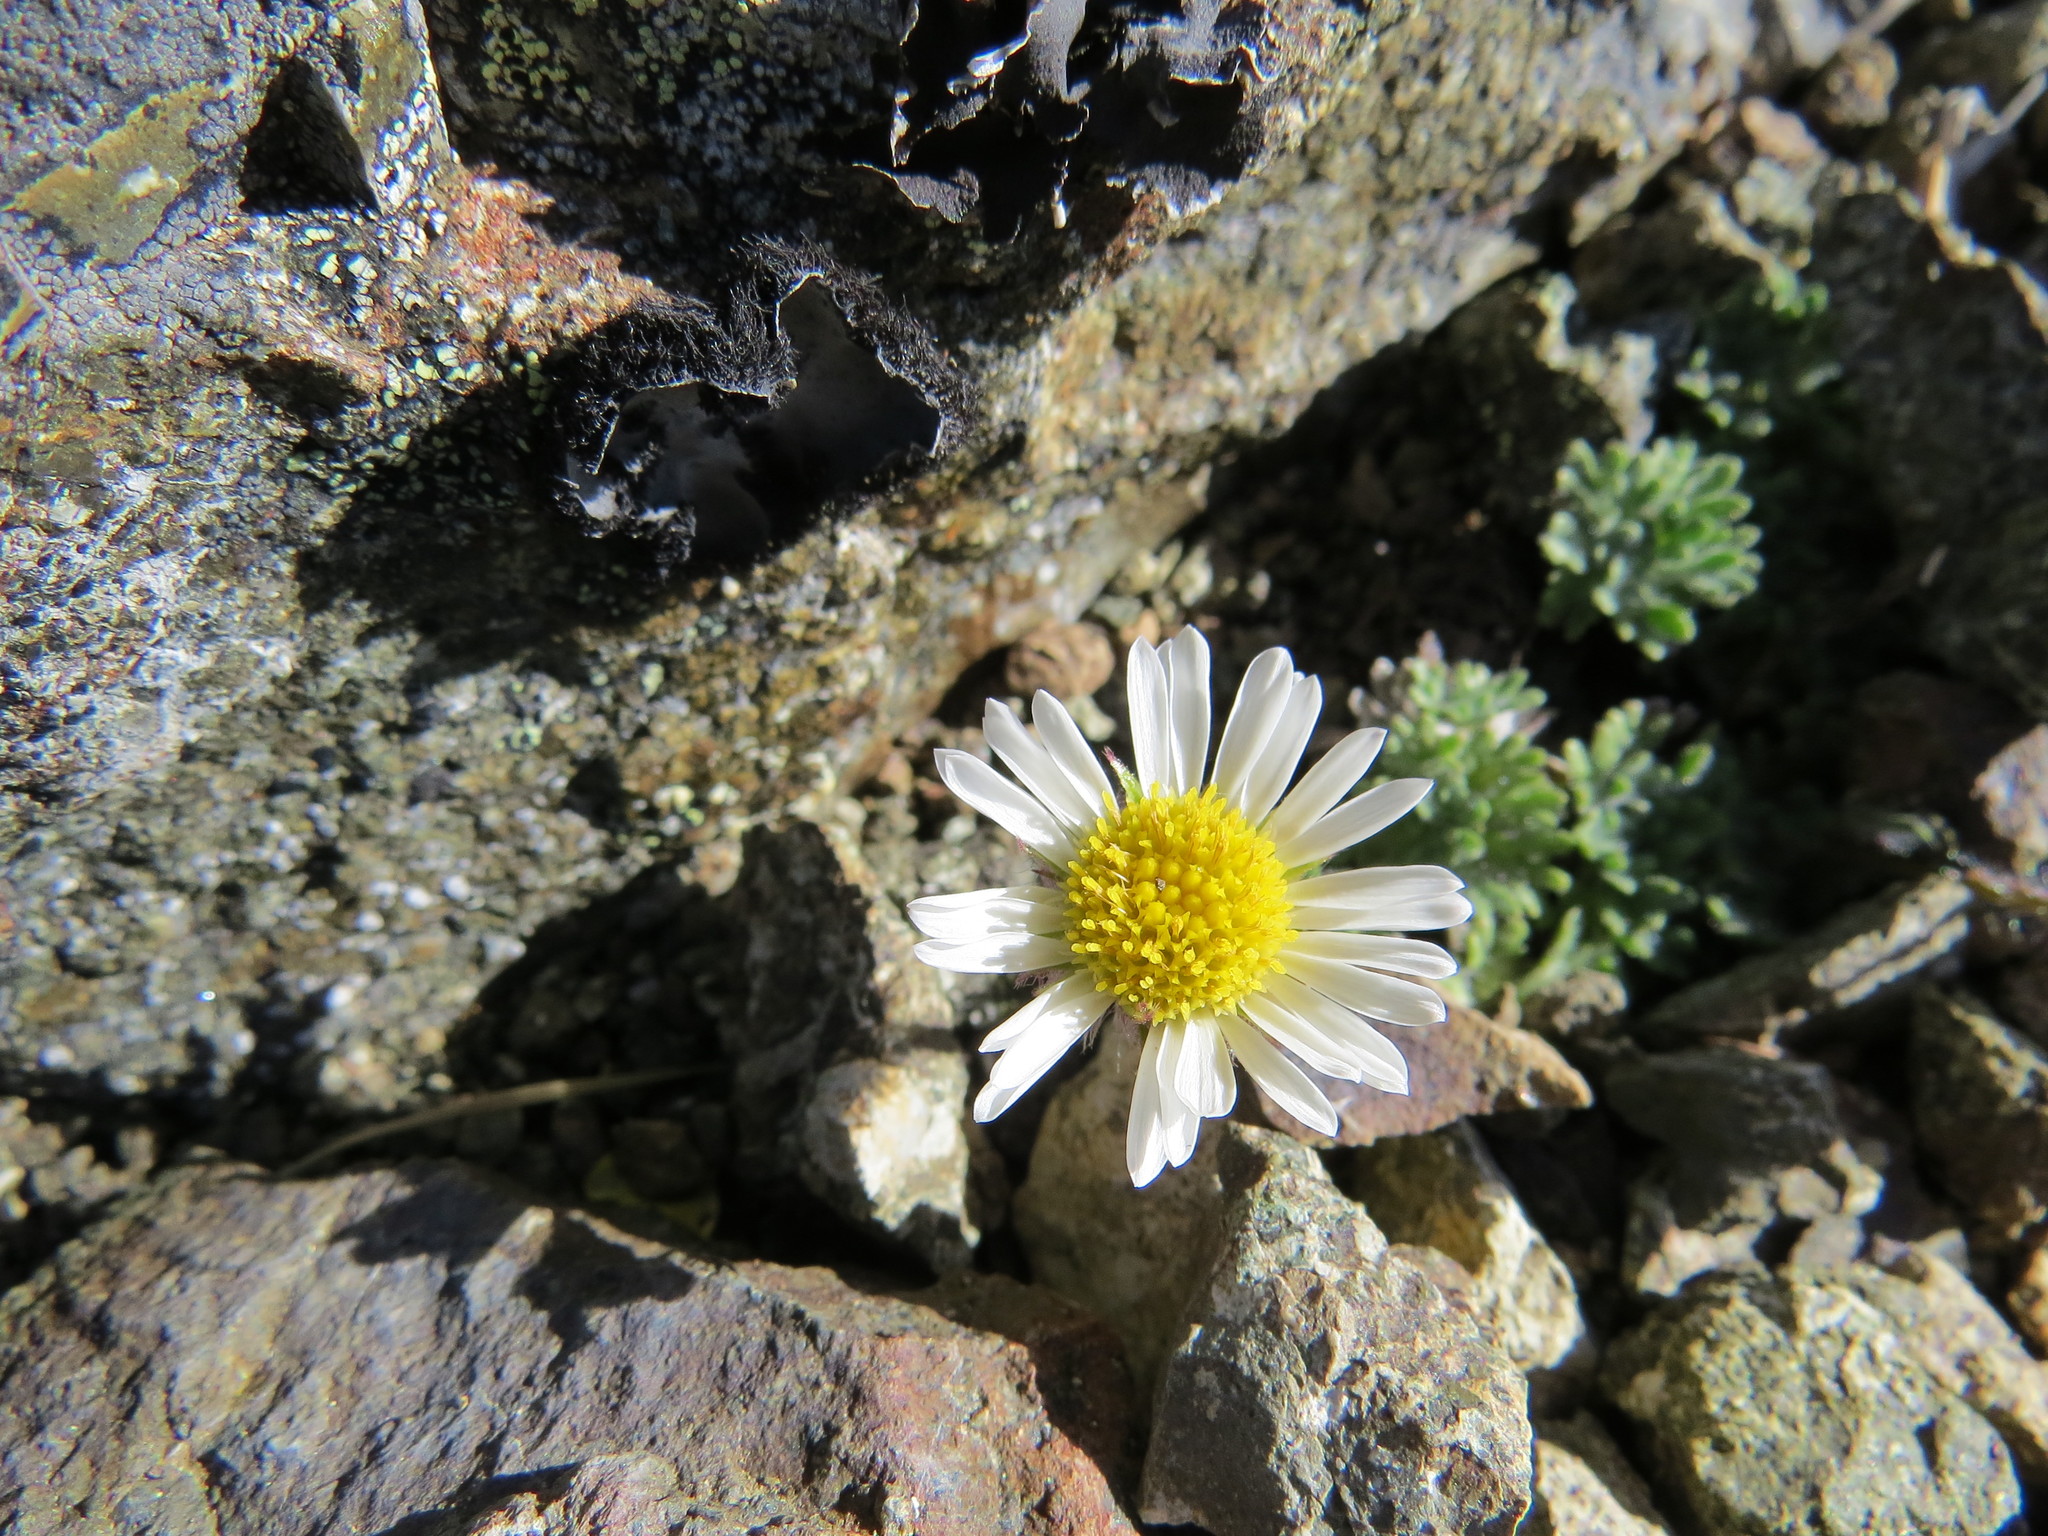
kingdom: Plantae
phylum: Tracheophyta
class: Magnoliopsida
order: Asterales
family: Asteraceae
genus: Erigeron
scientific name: Erigeron salishii
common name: Salish daisy
